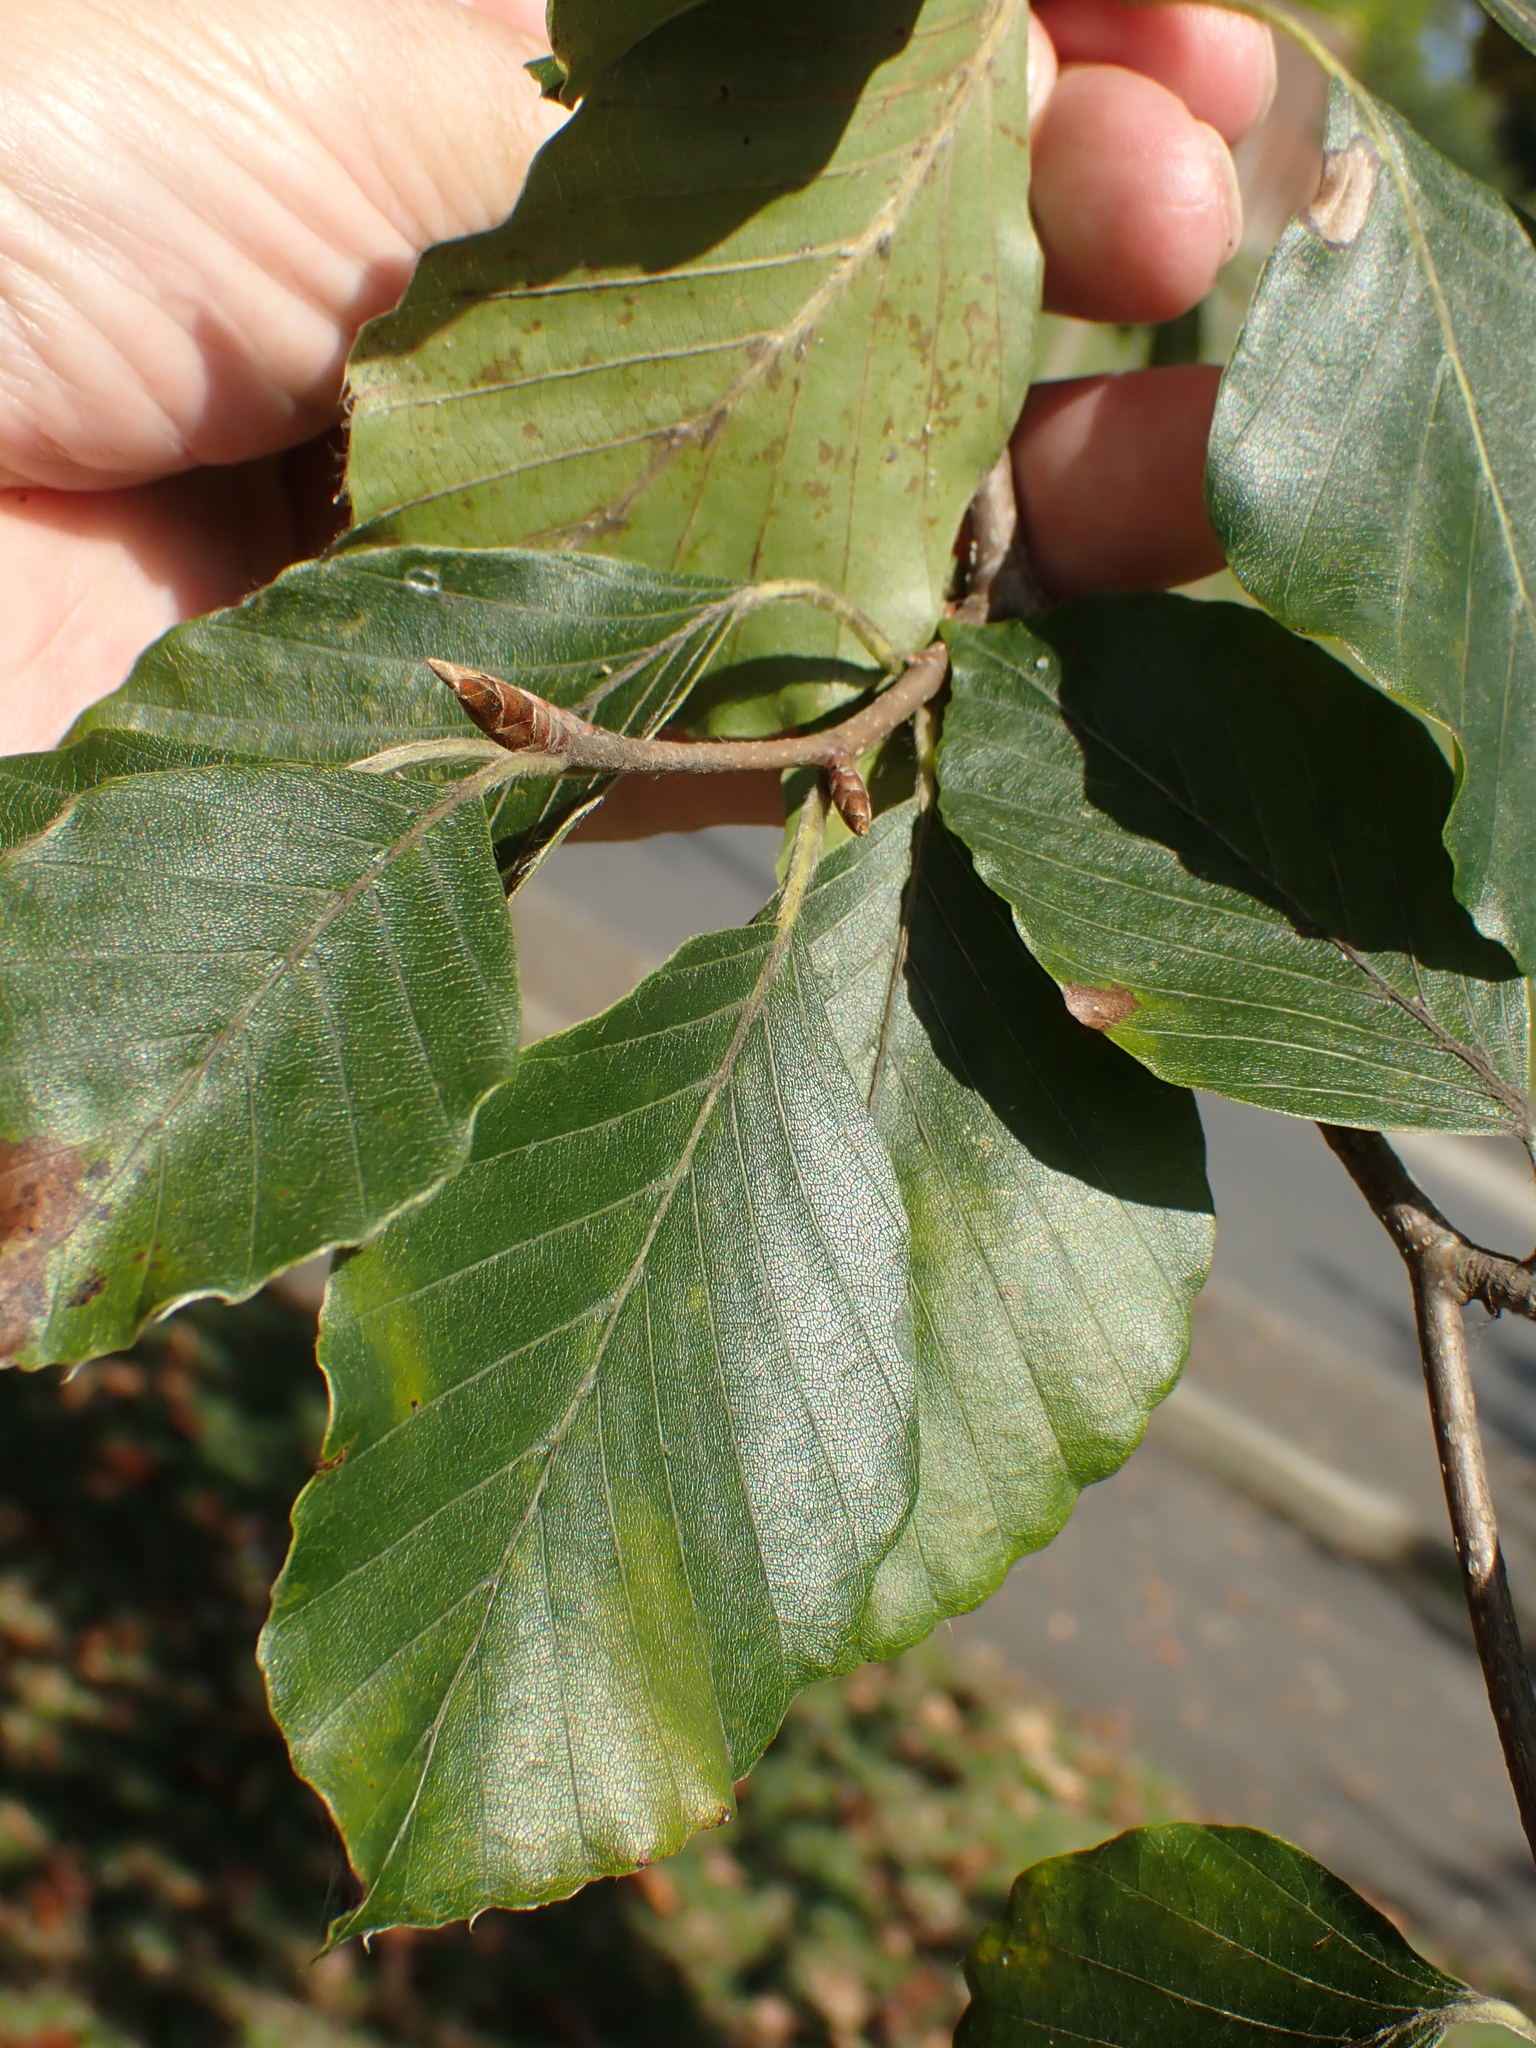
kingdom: Plantae
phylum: Tracheophyta
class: Magnoliopsida
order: Fagales
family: Fagaceae
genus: Fagus
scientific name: Fagus sylvatica
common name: Beech
